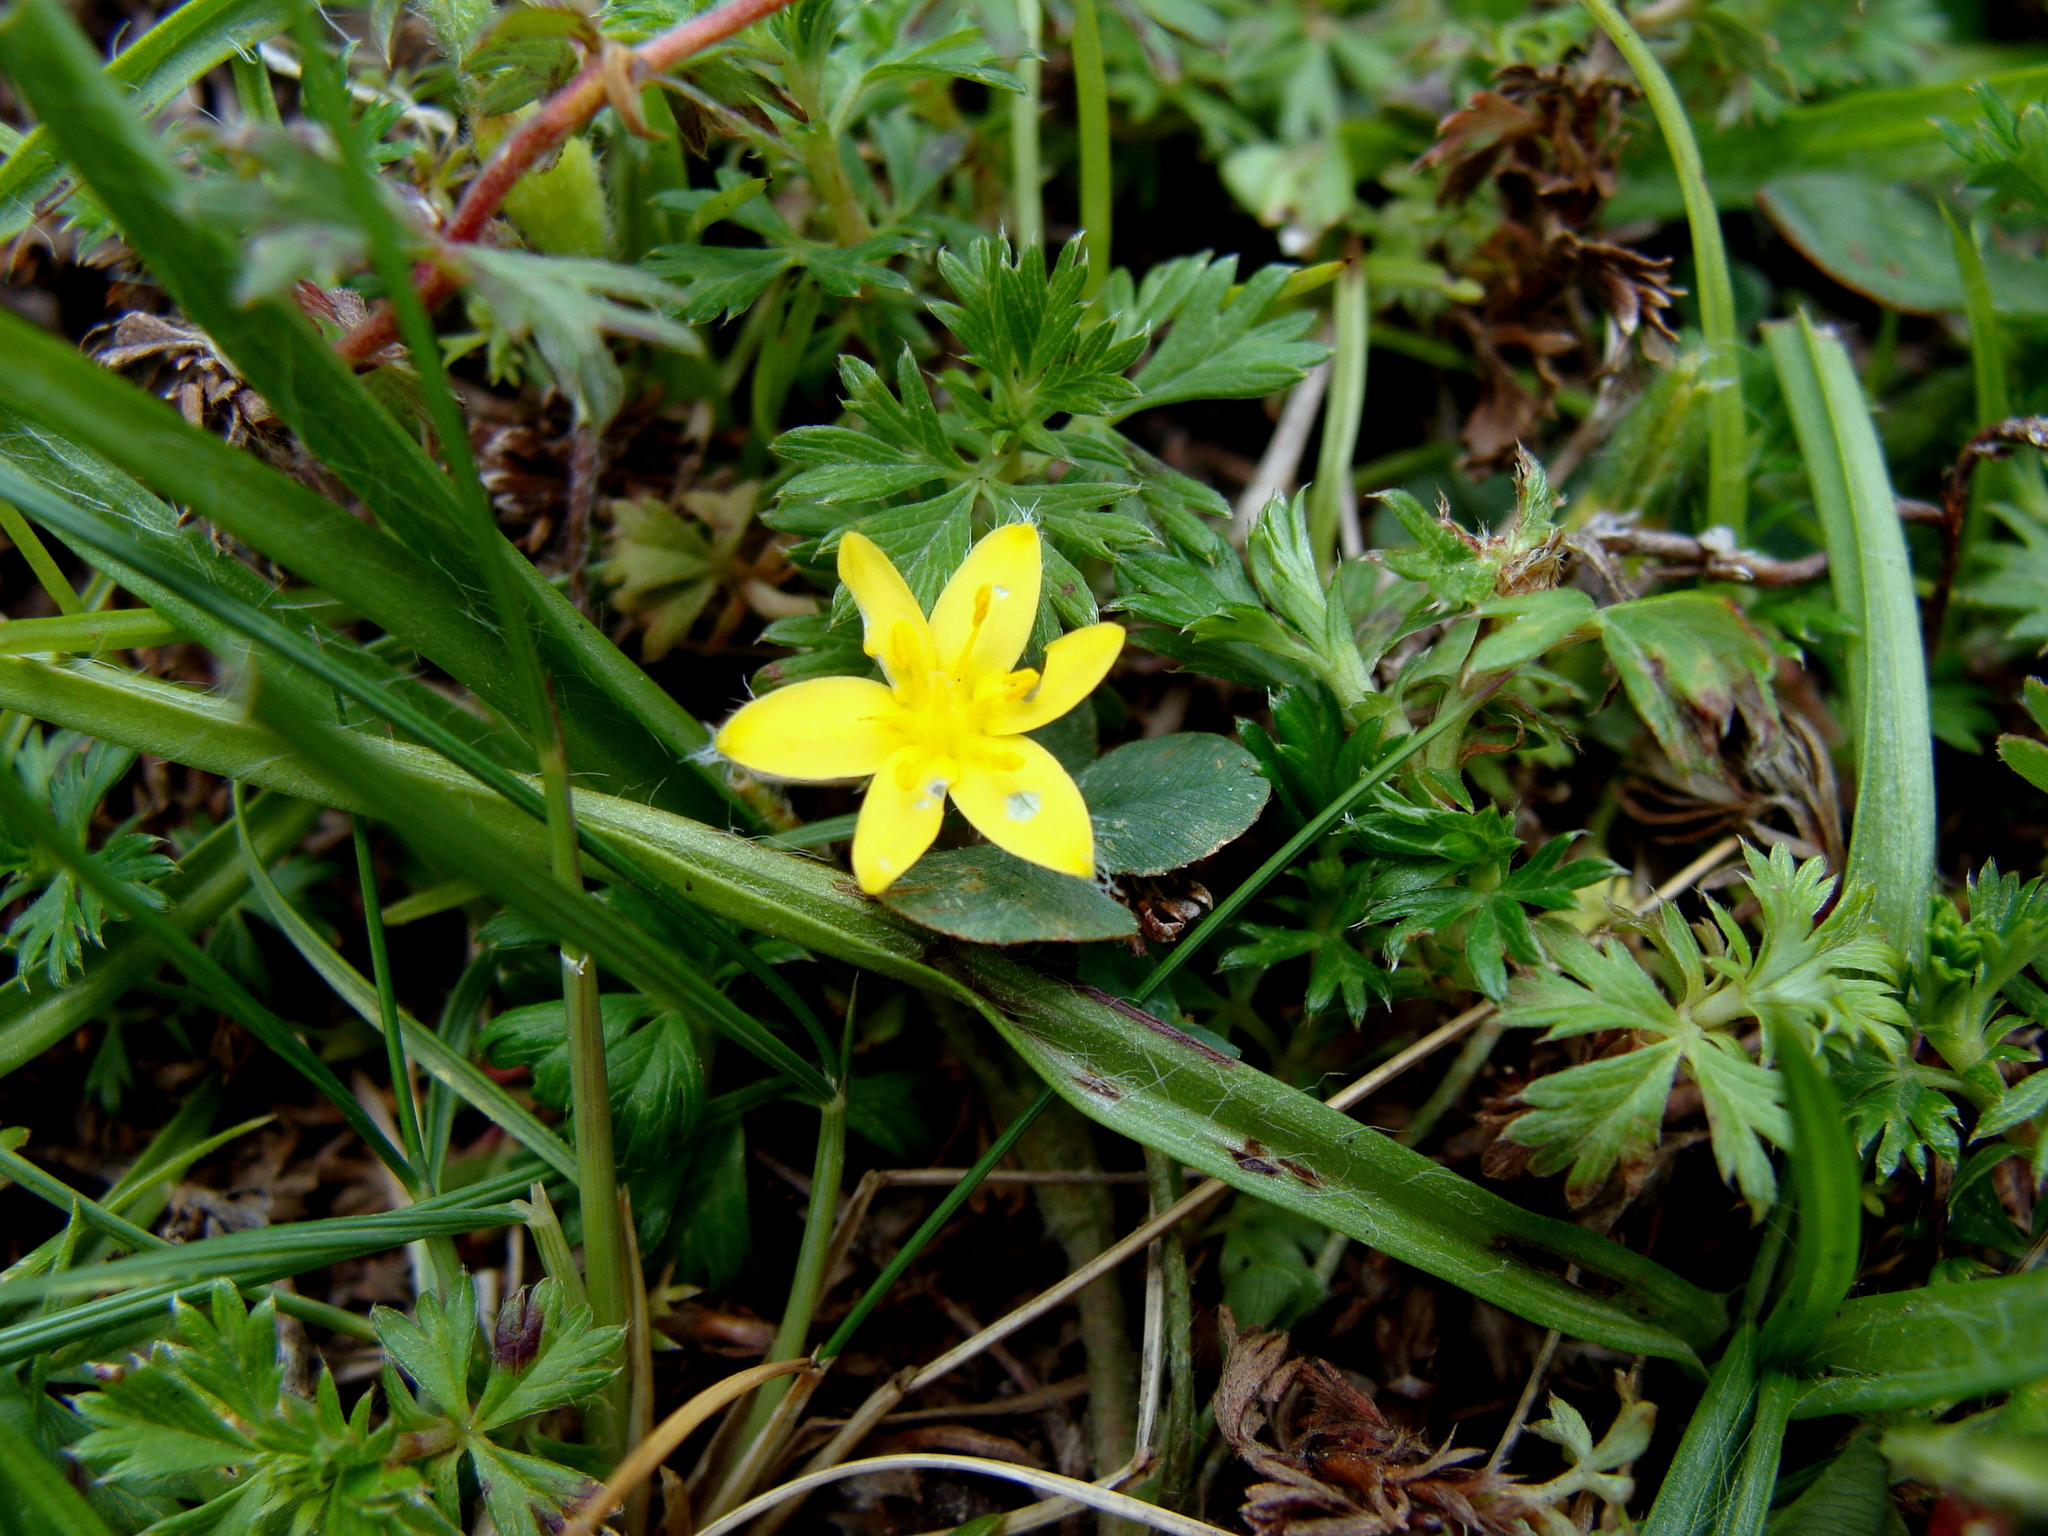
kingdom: Plantae
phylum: Tracheophyta
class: Liliopsida
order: Asparagales
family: Hypoxidaceae
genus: Hypoxis
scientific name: Hypoxis decumbens
